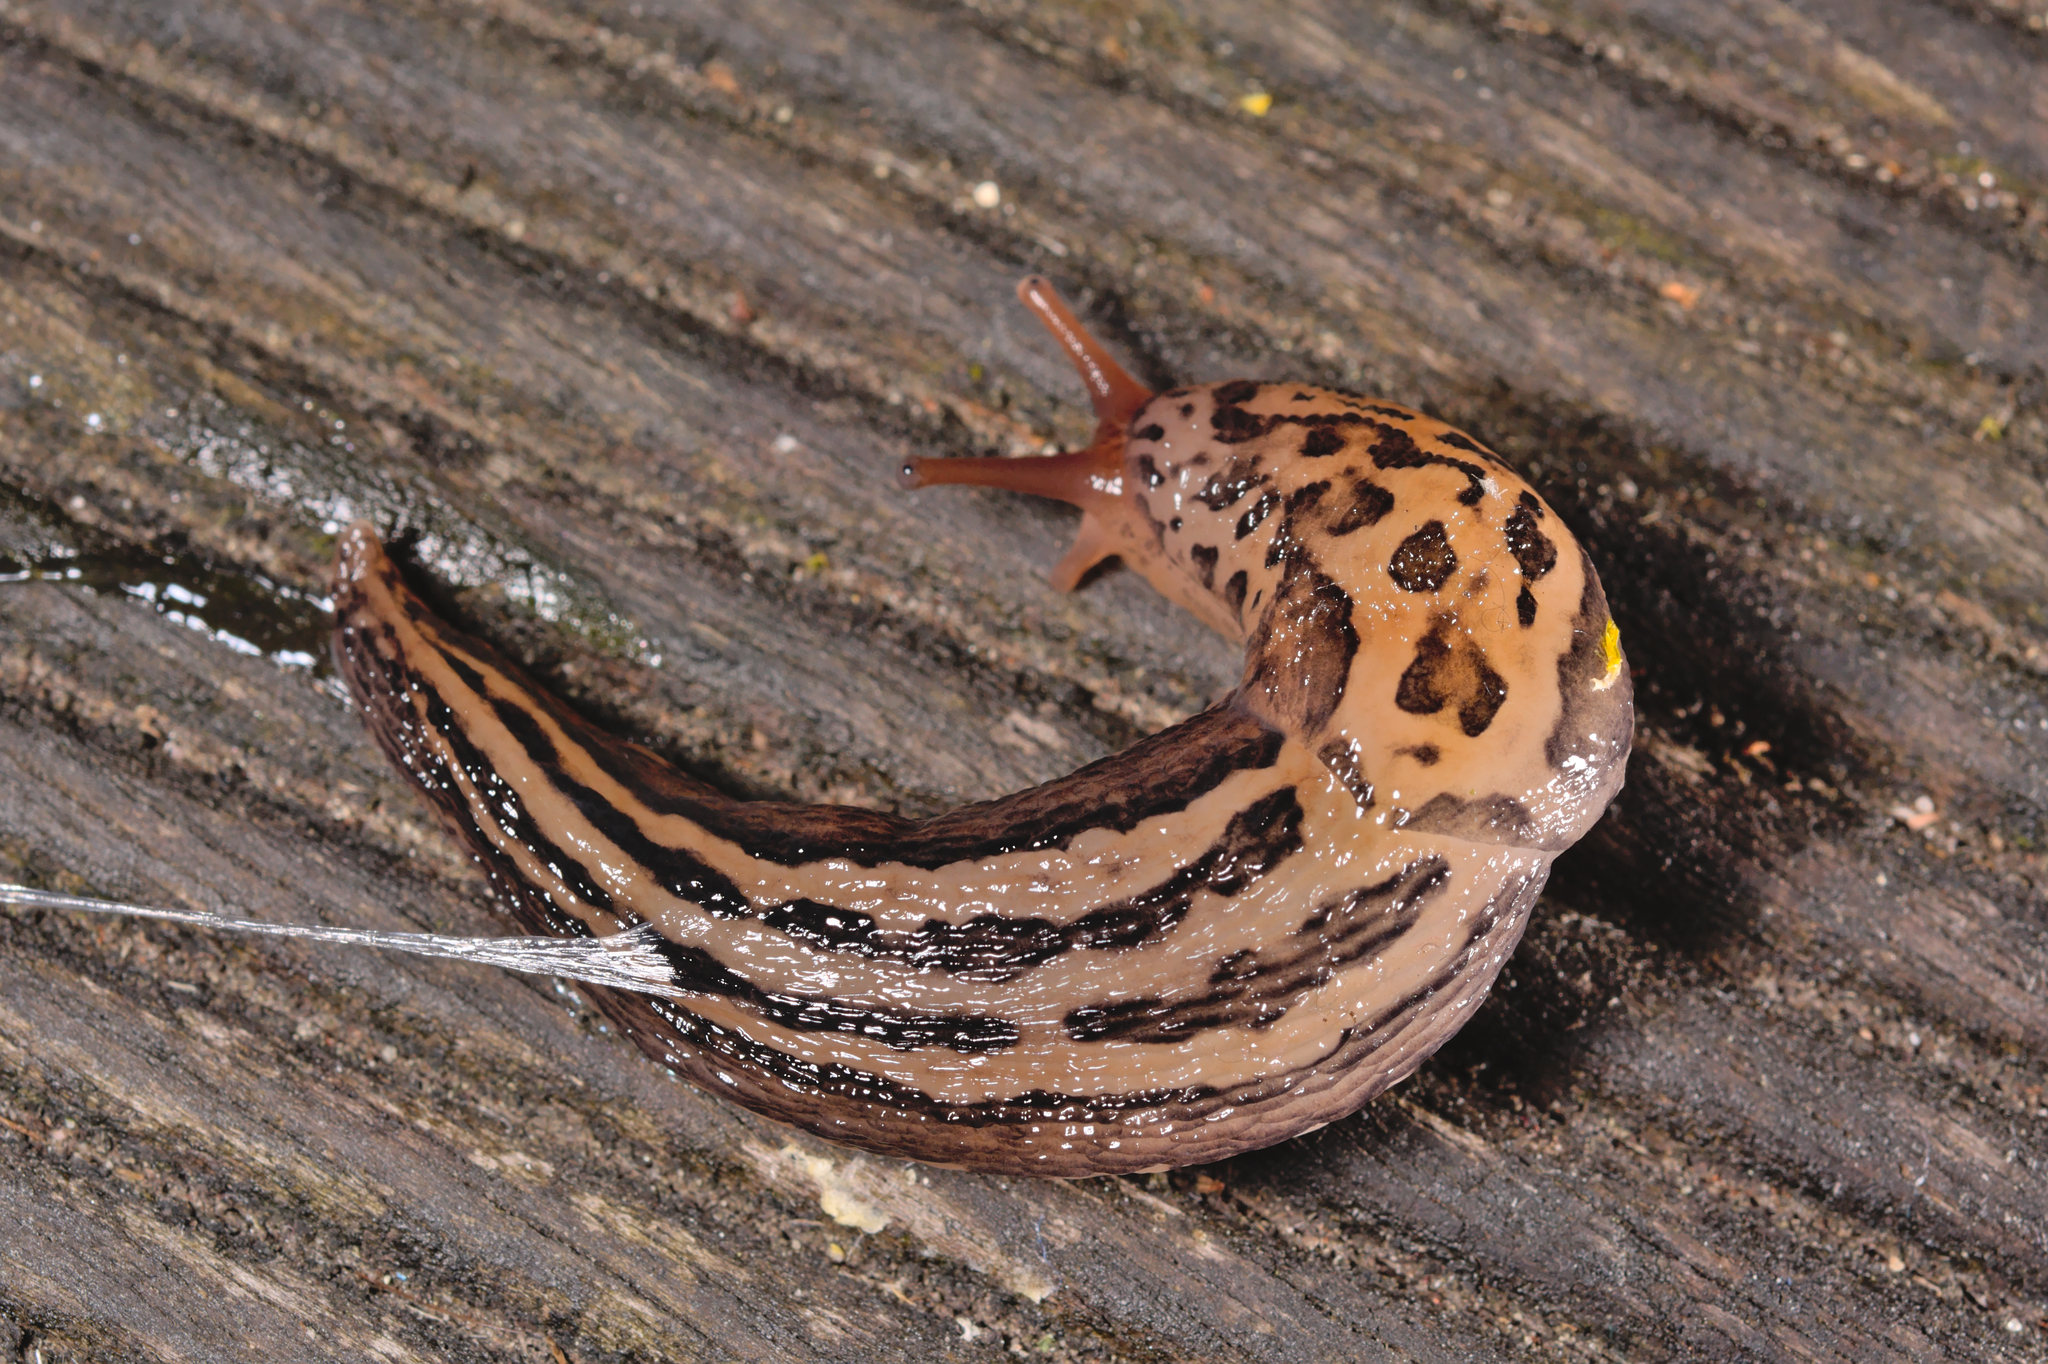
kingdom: Animalia
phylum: Mollusca
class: Gastropoda
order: Stylommatophora
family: Limacidae
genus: Limax
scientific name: Limax maximus
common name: Great grey slug
